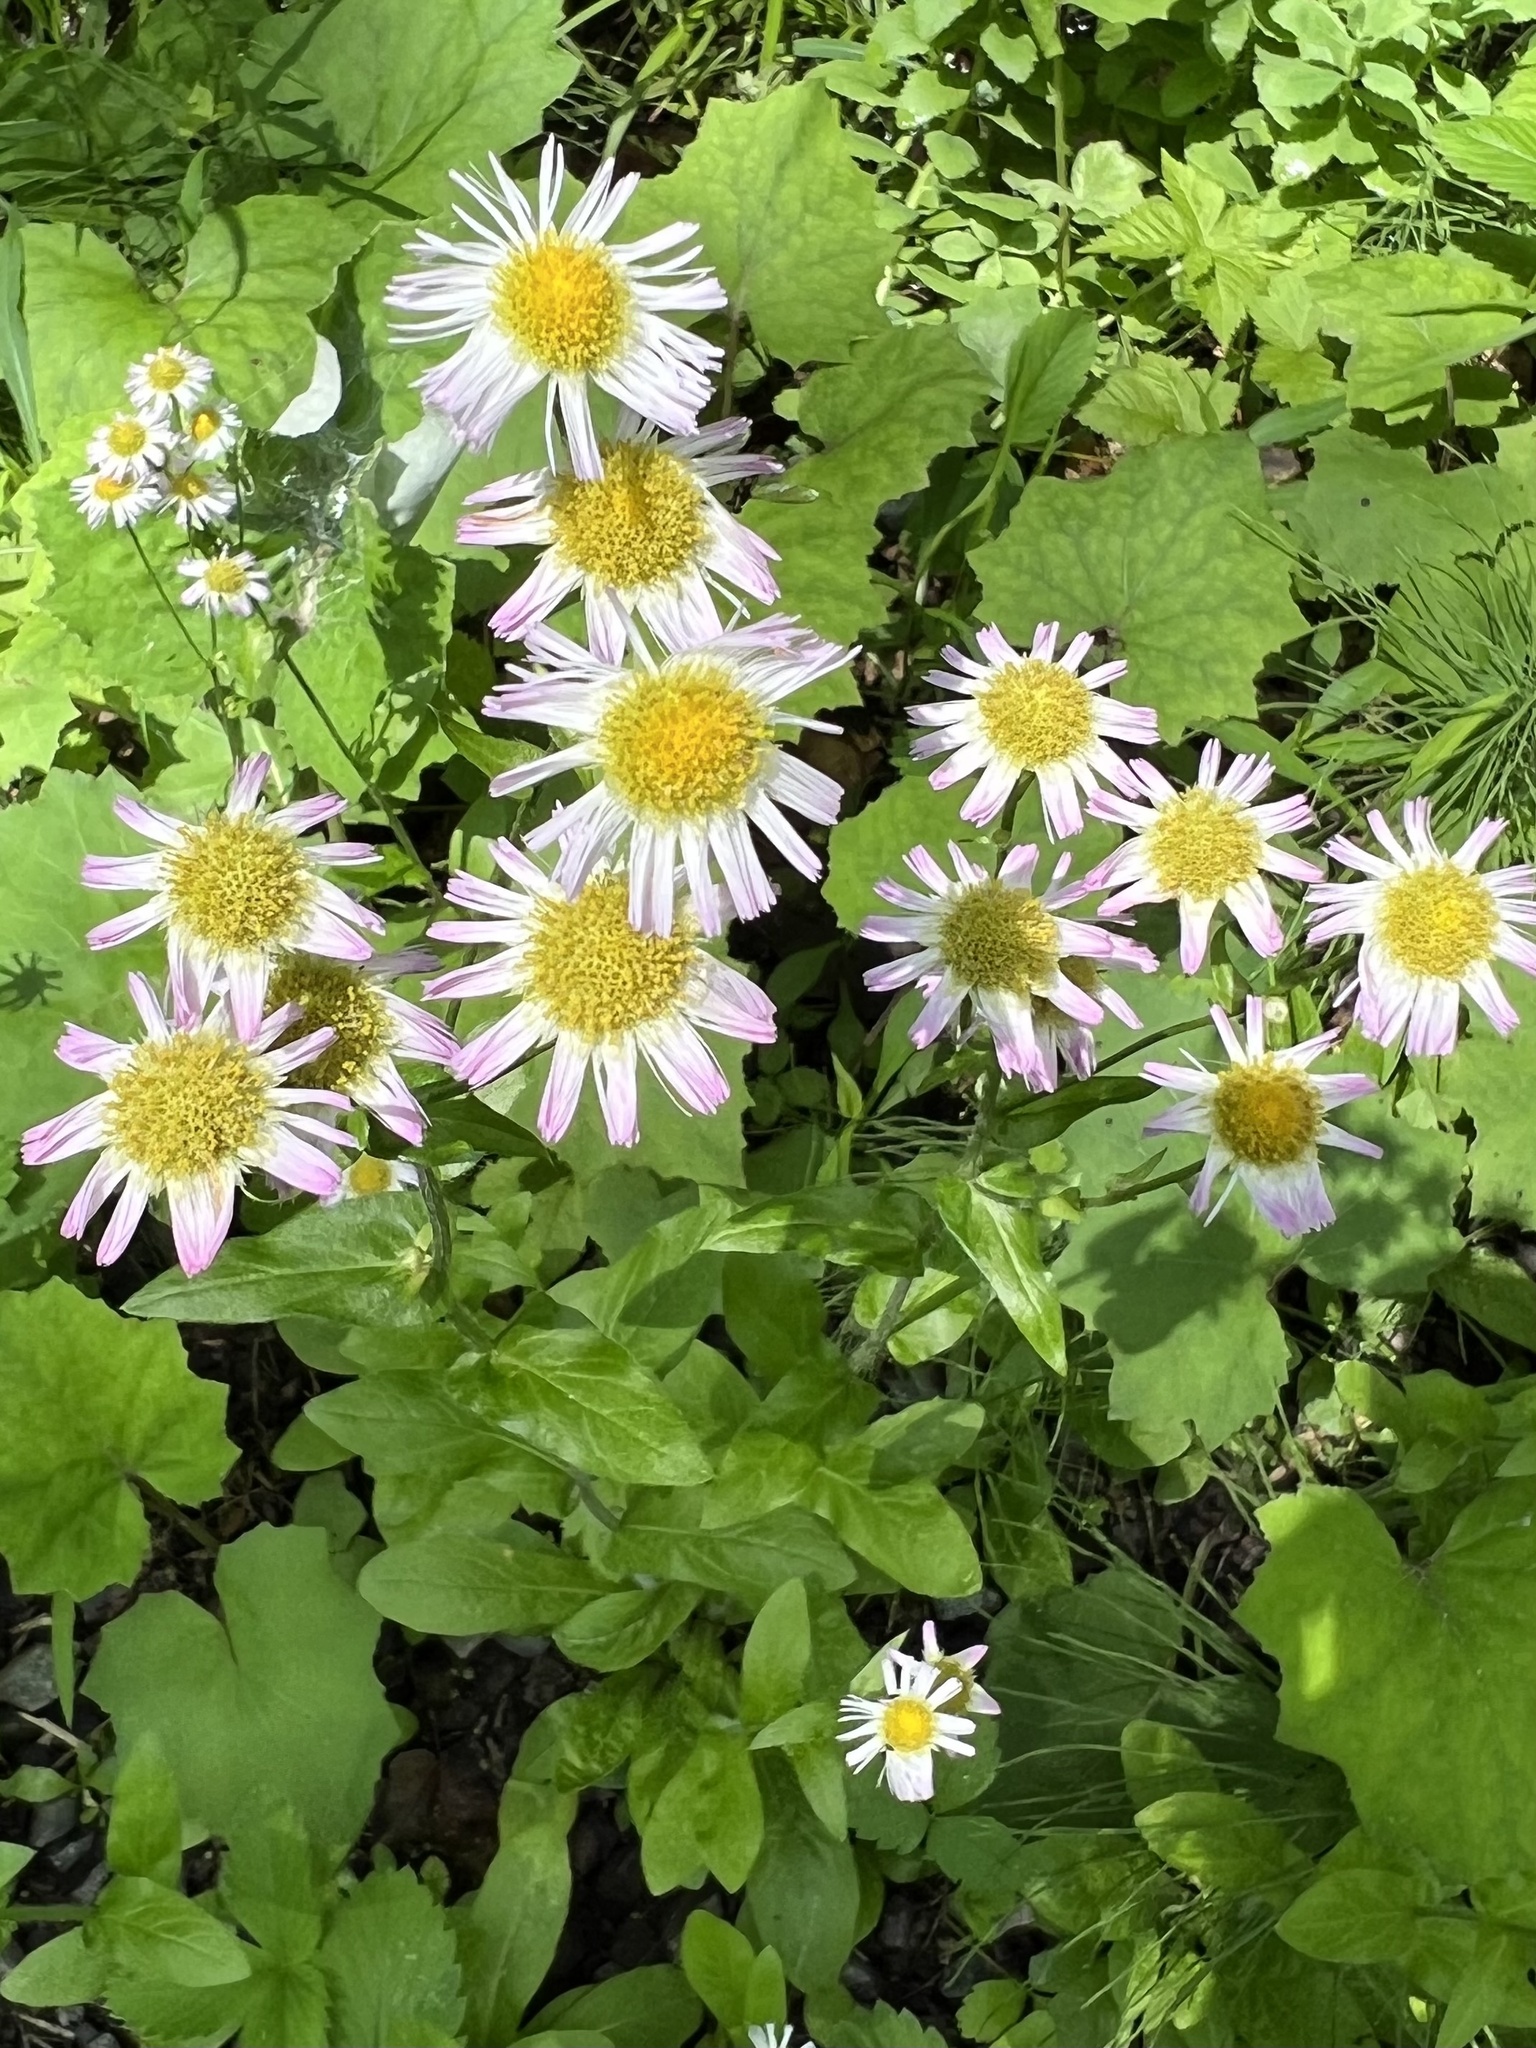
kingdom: Plantae
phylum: Tracheophyta
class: Magnoliopsida
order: Asterales
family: Asteraceae
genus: Erigeron
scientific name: Erigeron pulchellus
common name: Hairy fleabane
